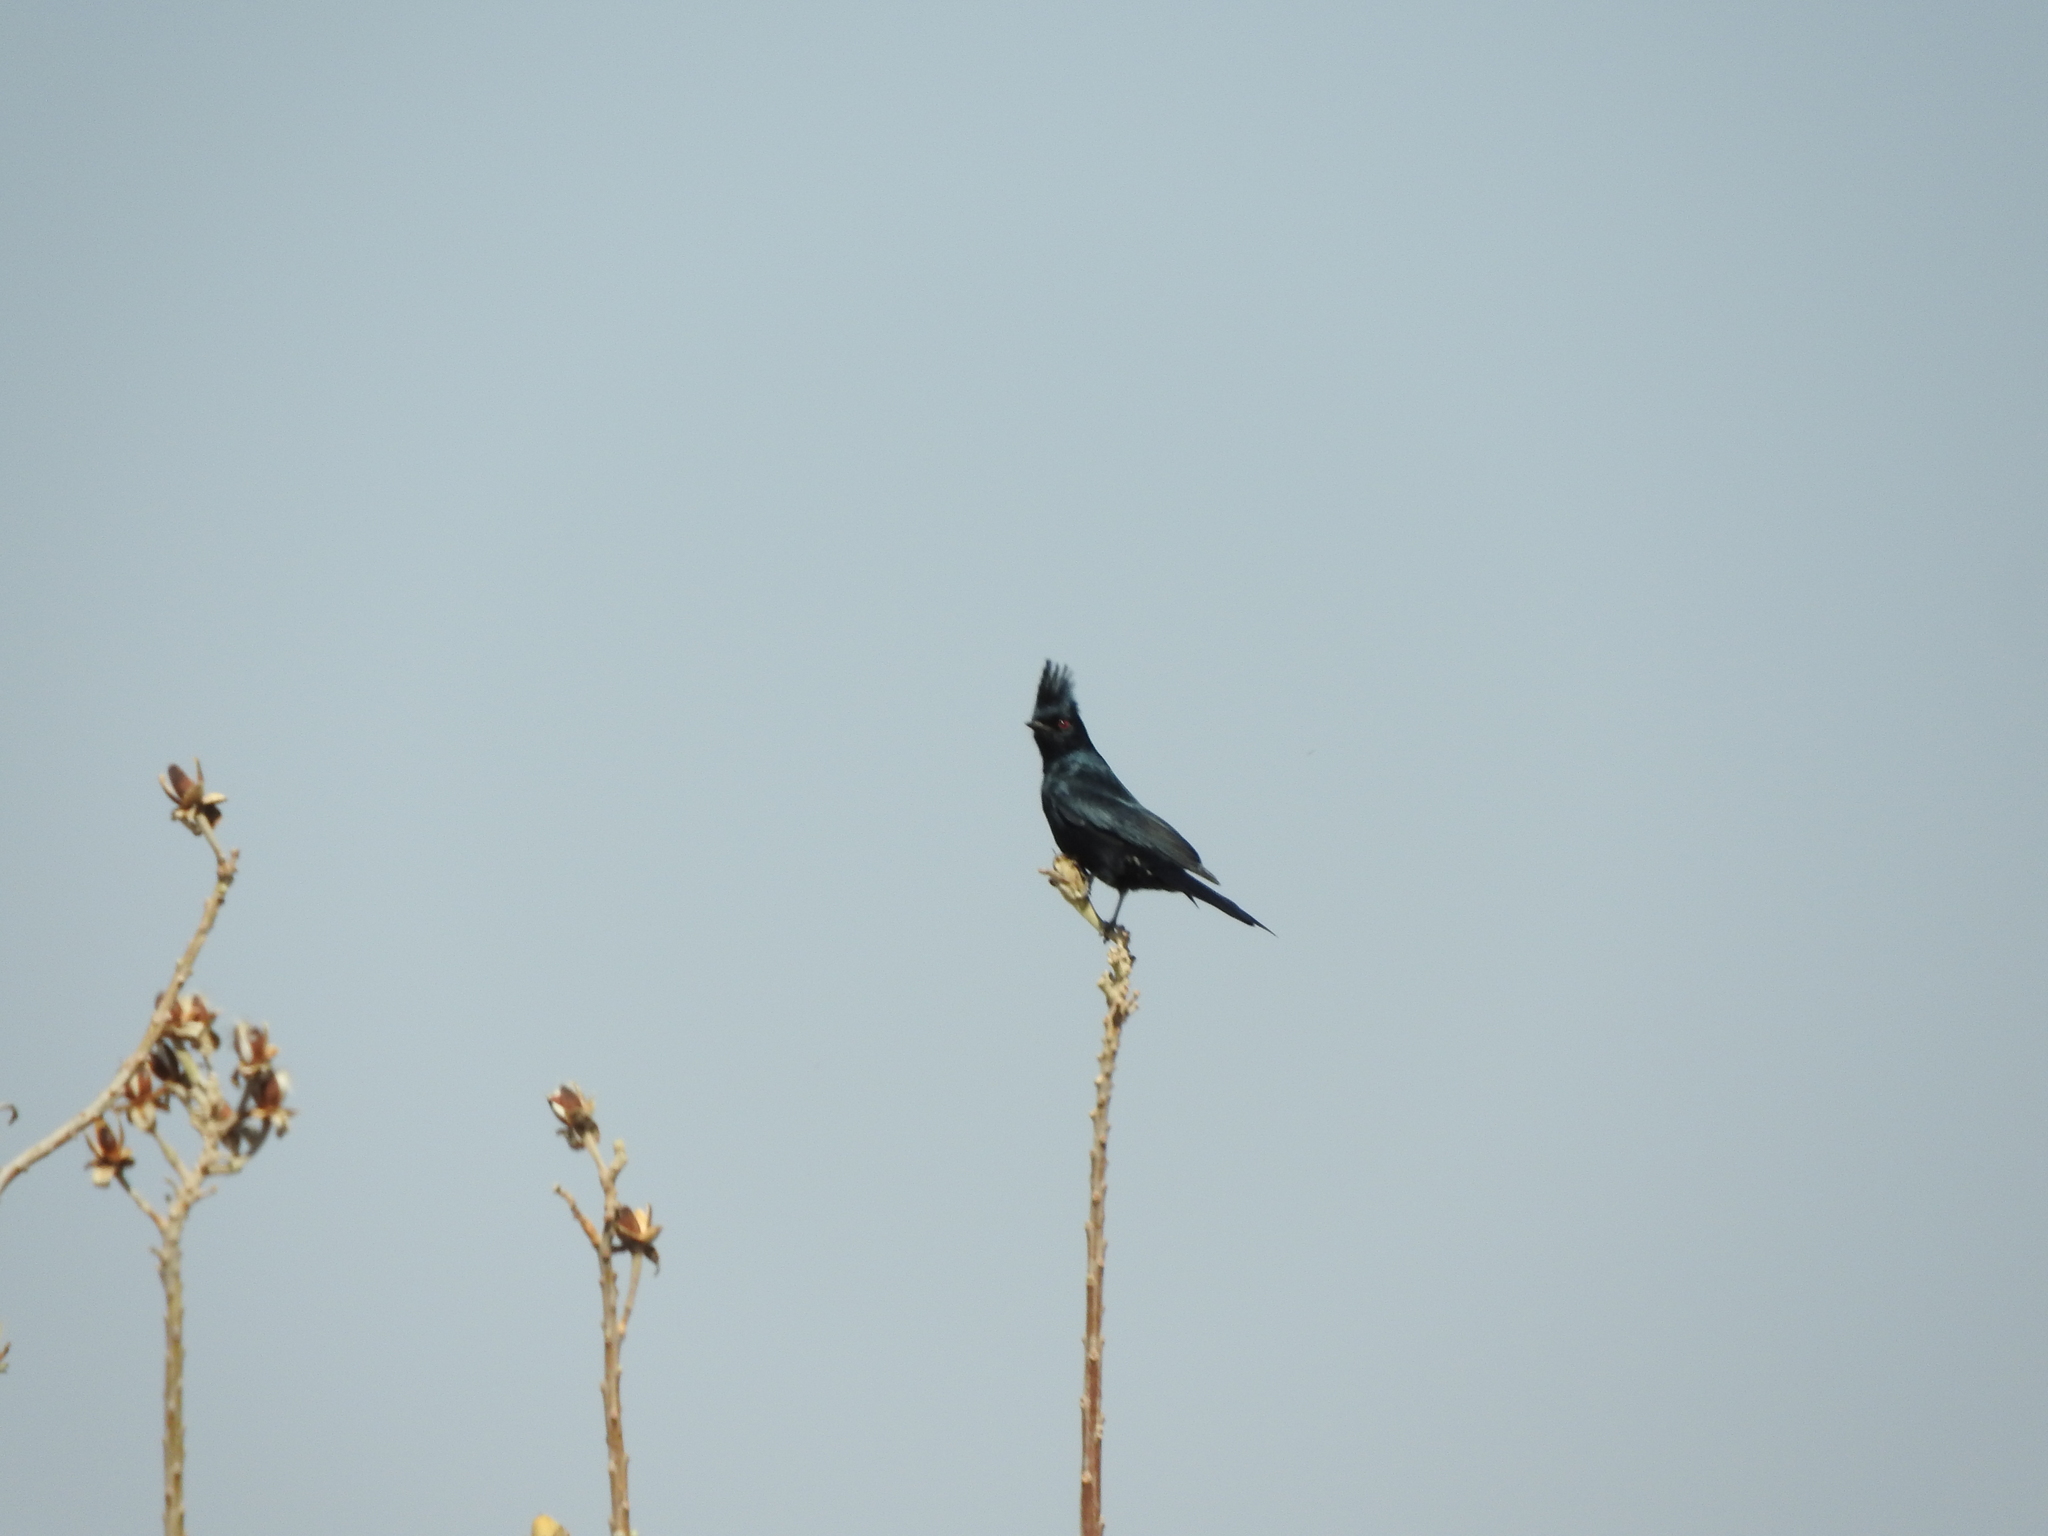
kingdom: Animalia
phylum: Chordata
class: Aves
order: Passeriformes
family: Ptilogonatidae
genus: Phainopepla
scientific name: Phainopepla nitens
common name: Phainopepla
